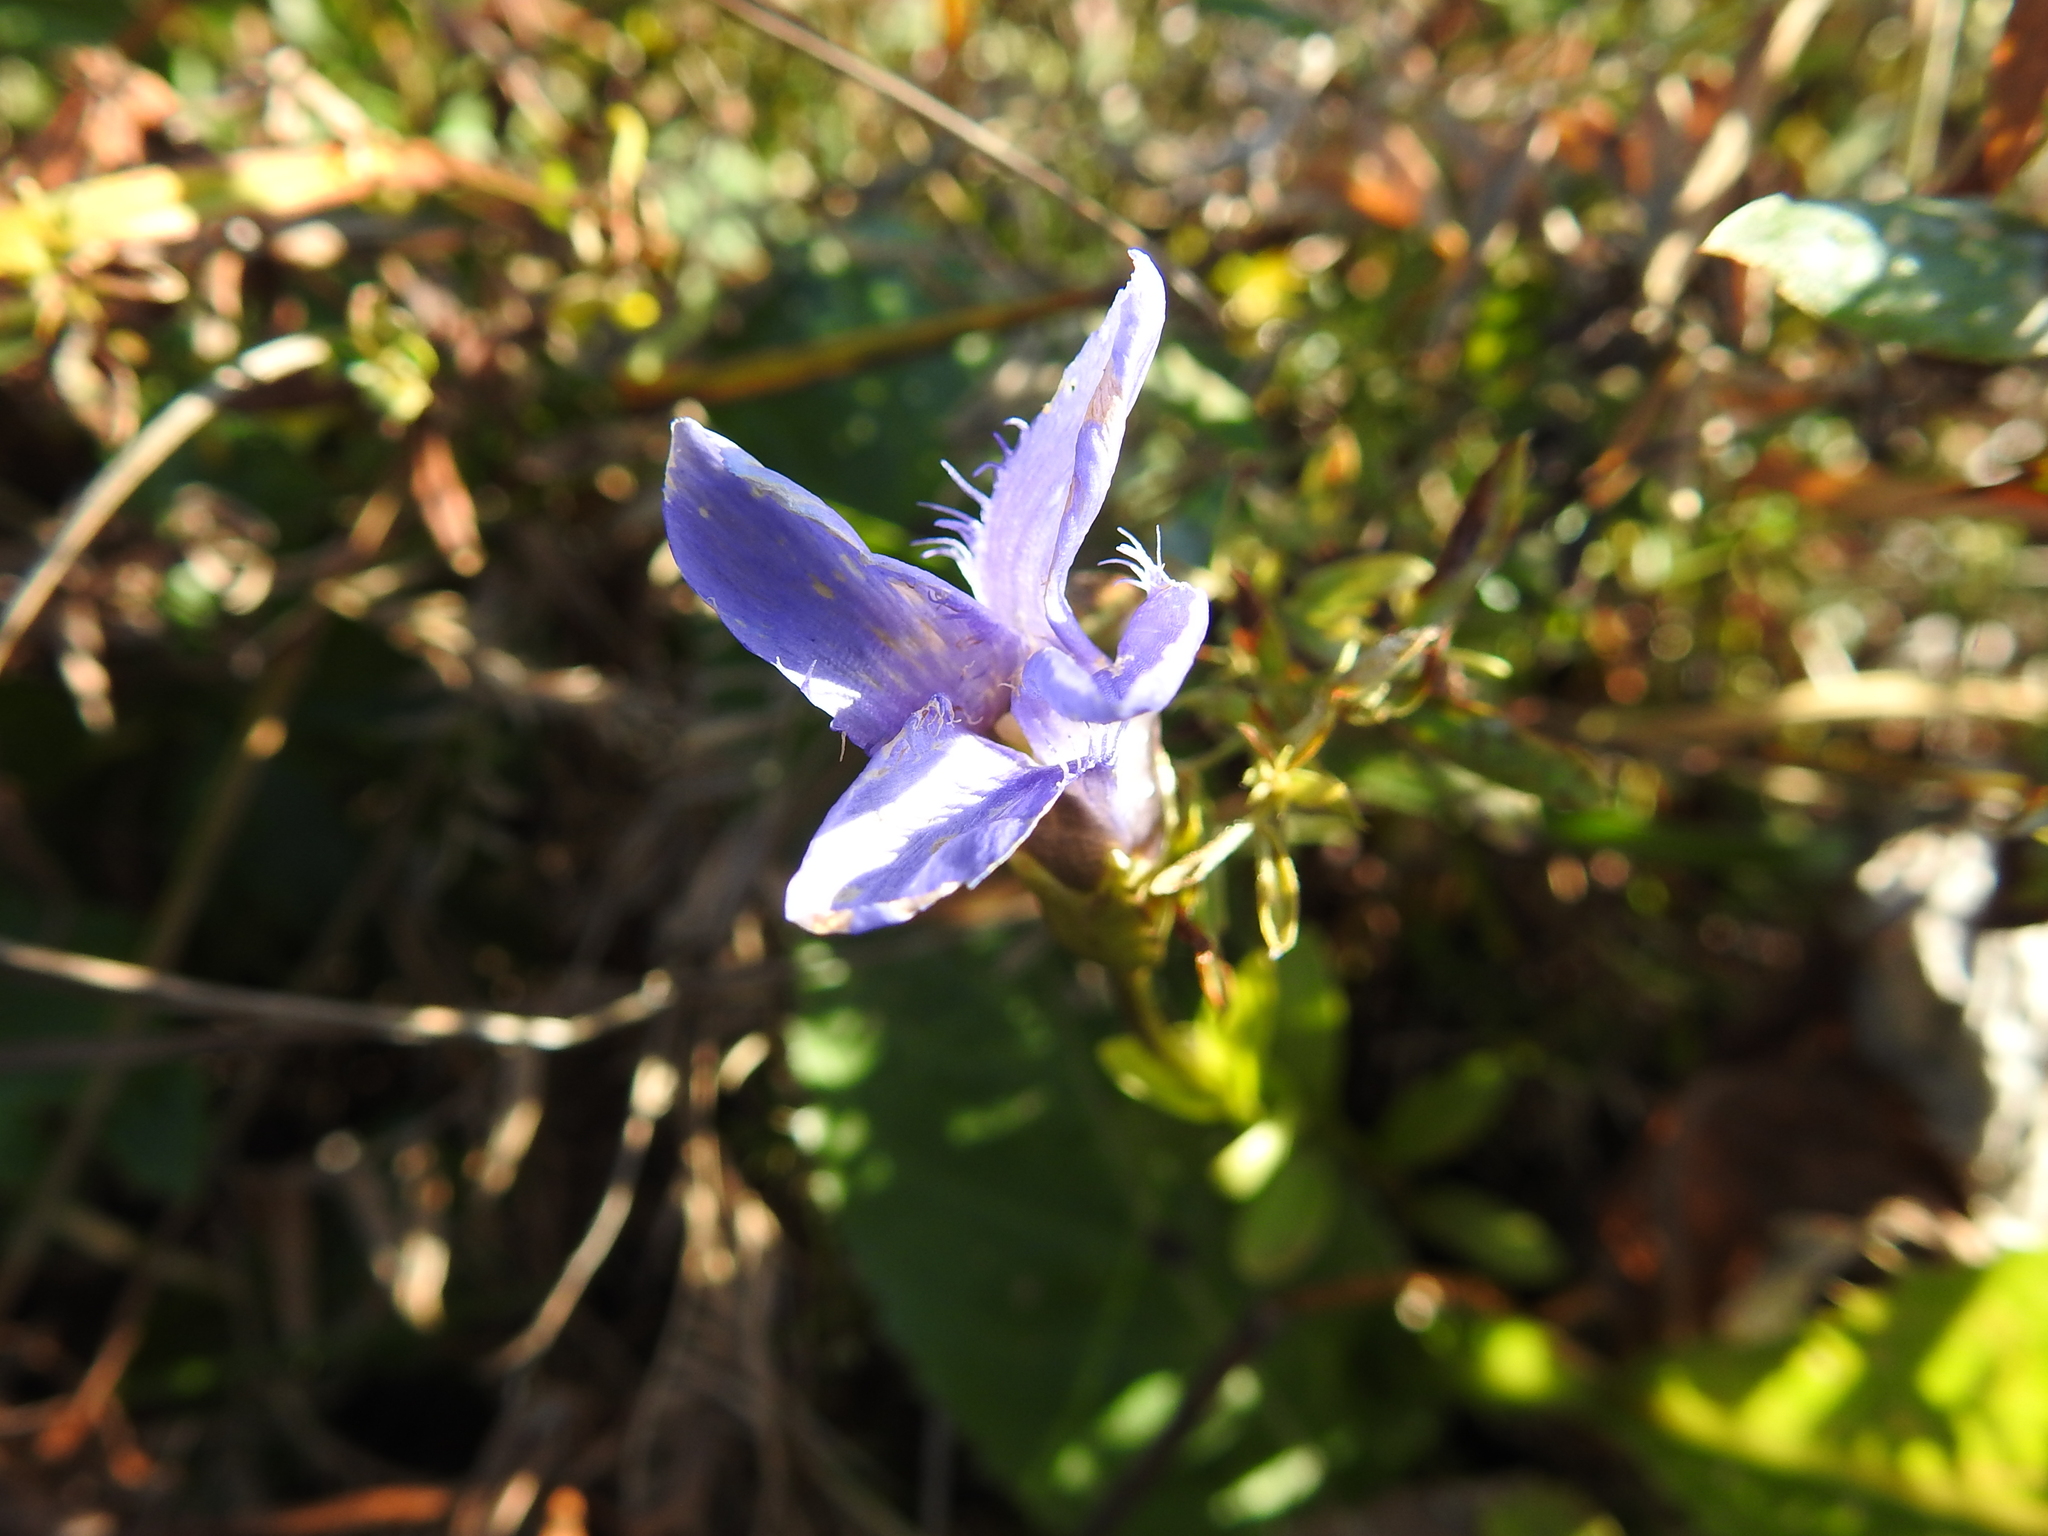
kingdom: Plantae
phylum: Tracheophyta
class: Magnoliopsida
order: Gentianales
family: Gentianaceae
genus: Gentianopsis
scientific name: Gentianopsis ciliata
